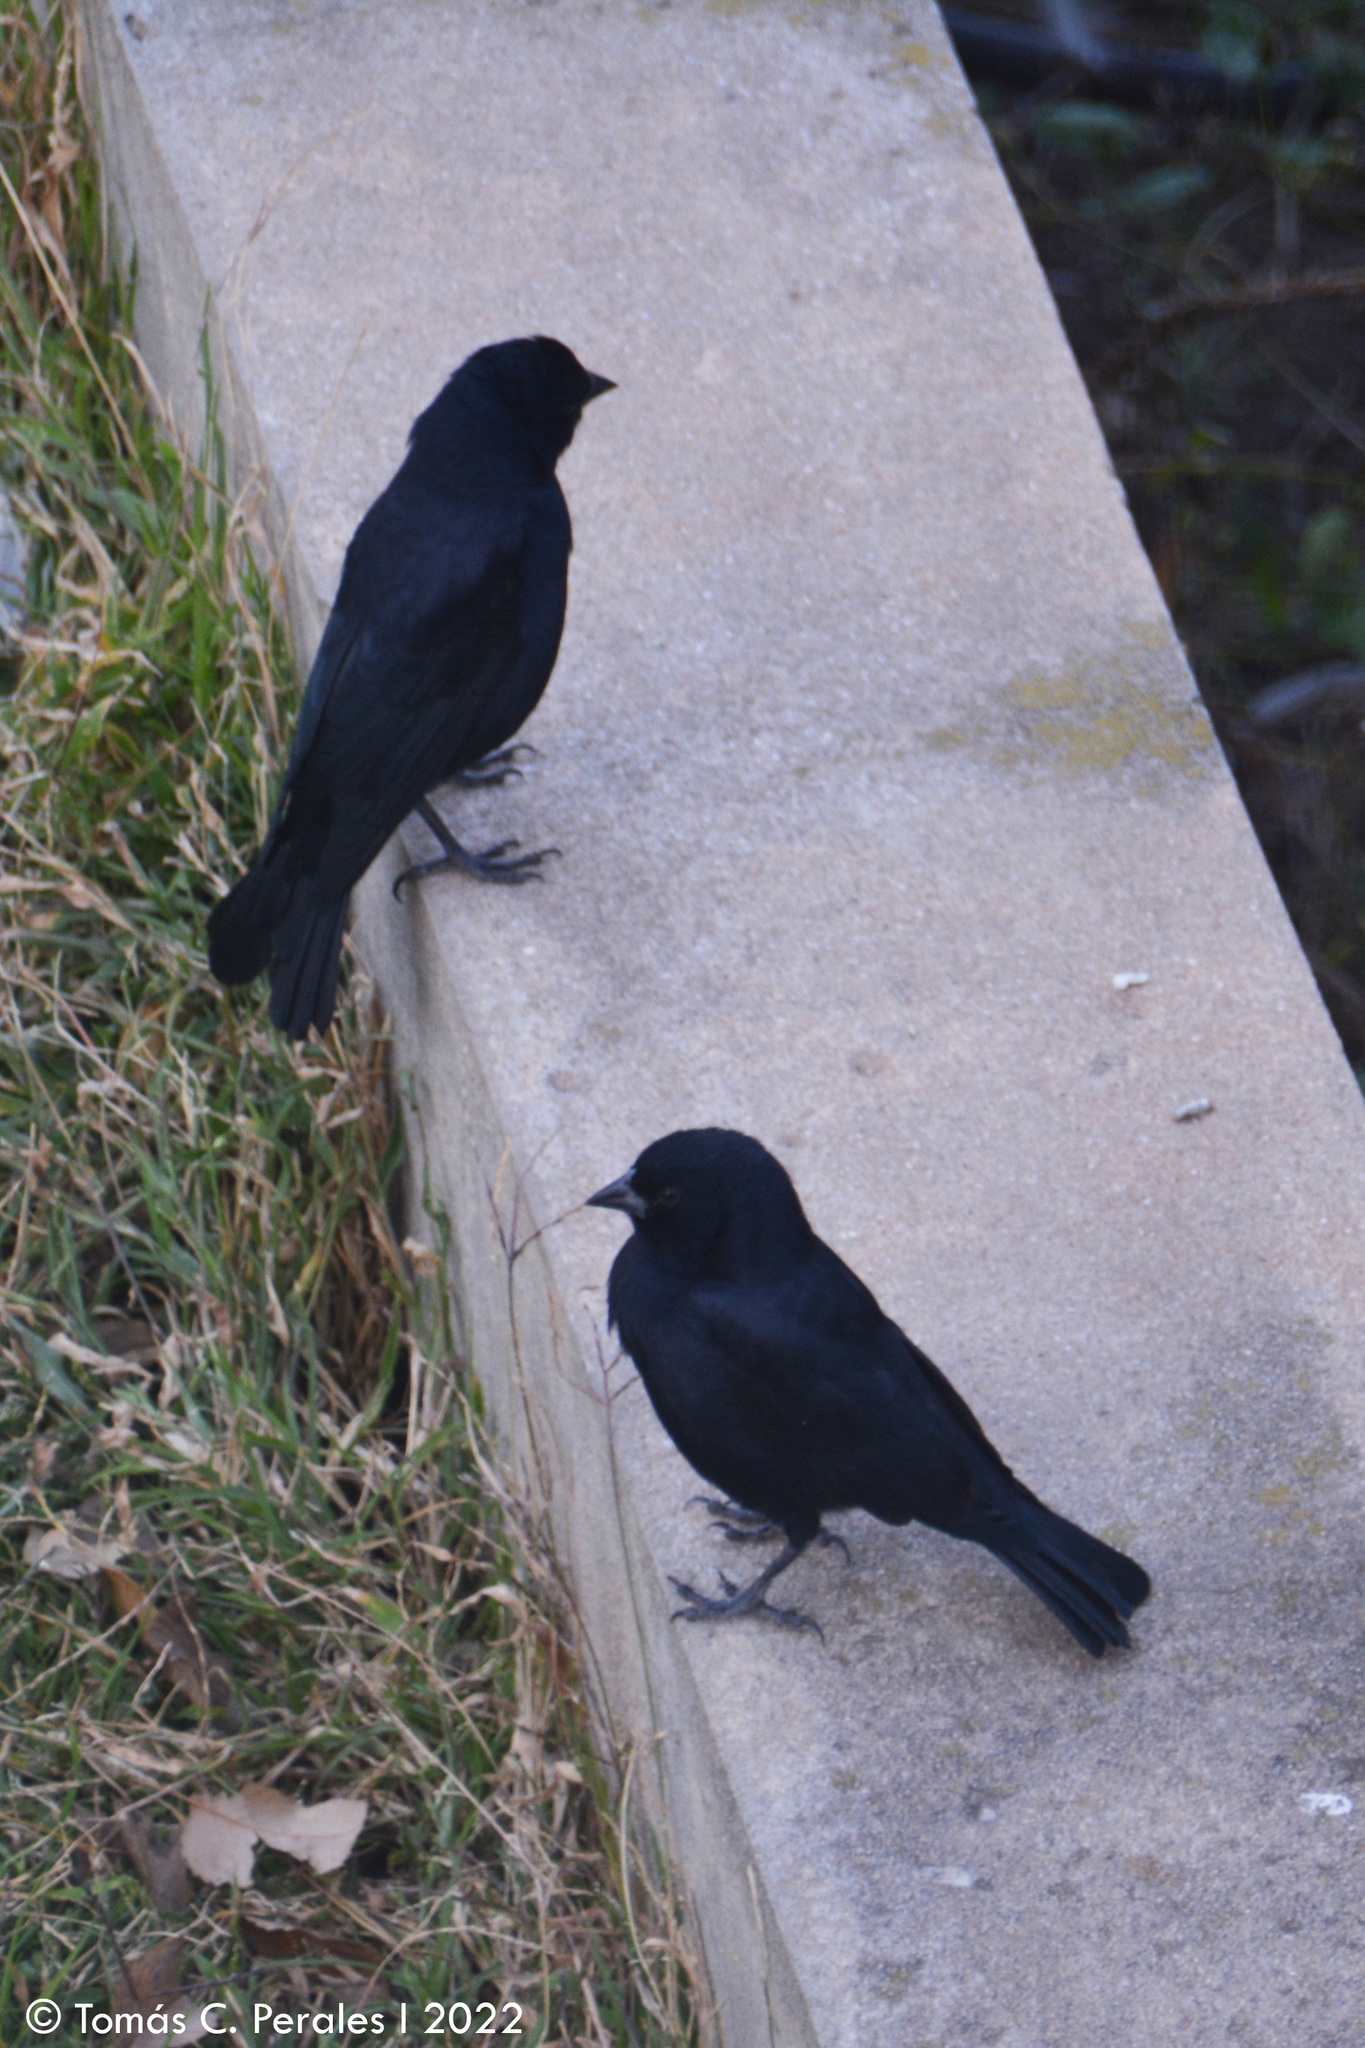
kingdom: Animalia
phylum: Chordata
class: Aves
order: Passeriformes
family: Icteridae
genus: Molothrus
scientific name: Molothrus rufoaxillaris
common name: Screaming cowbird
